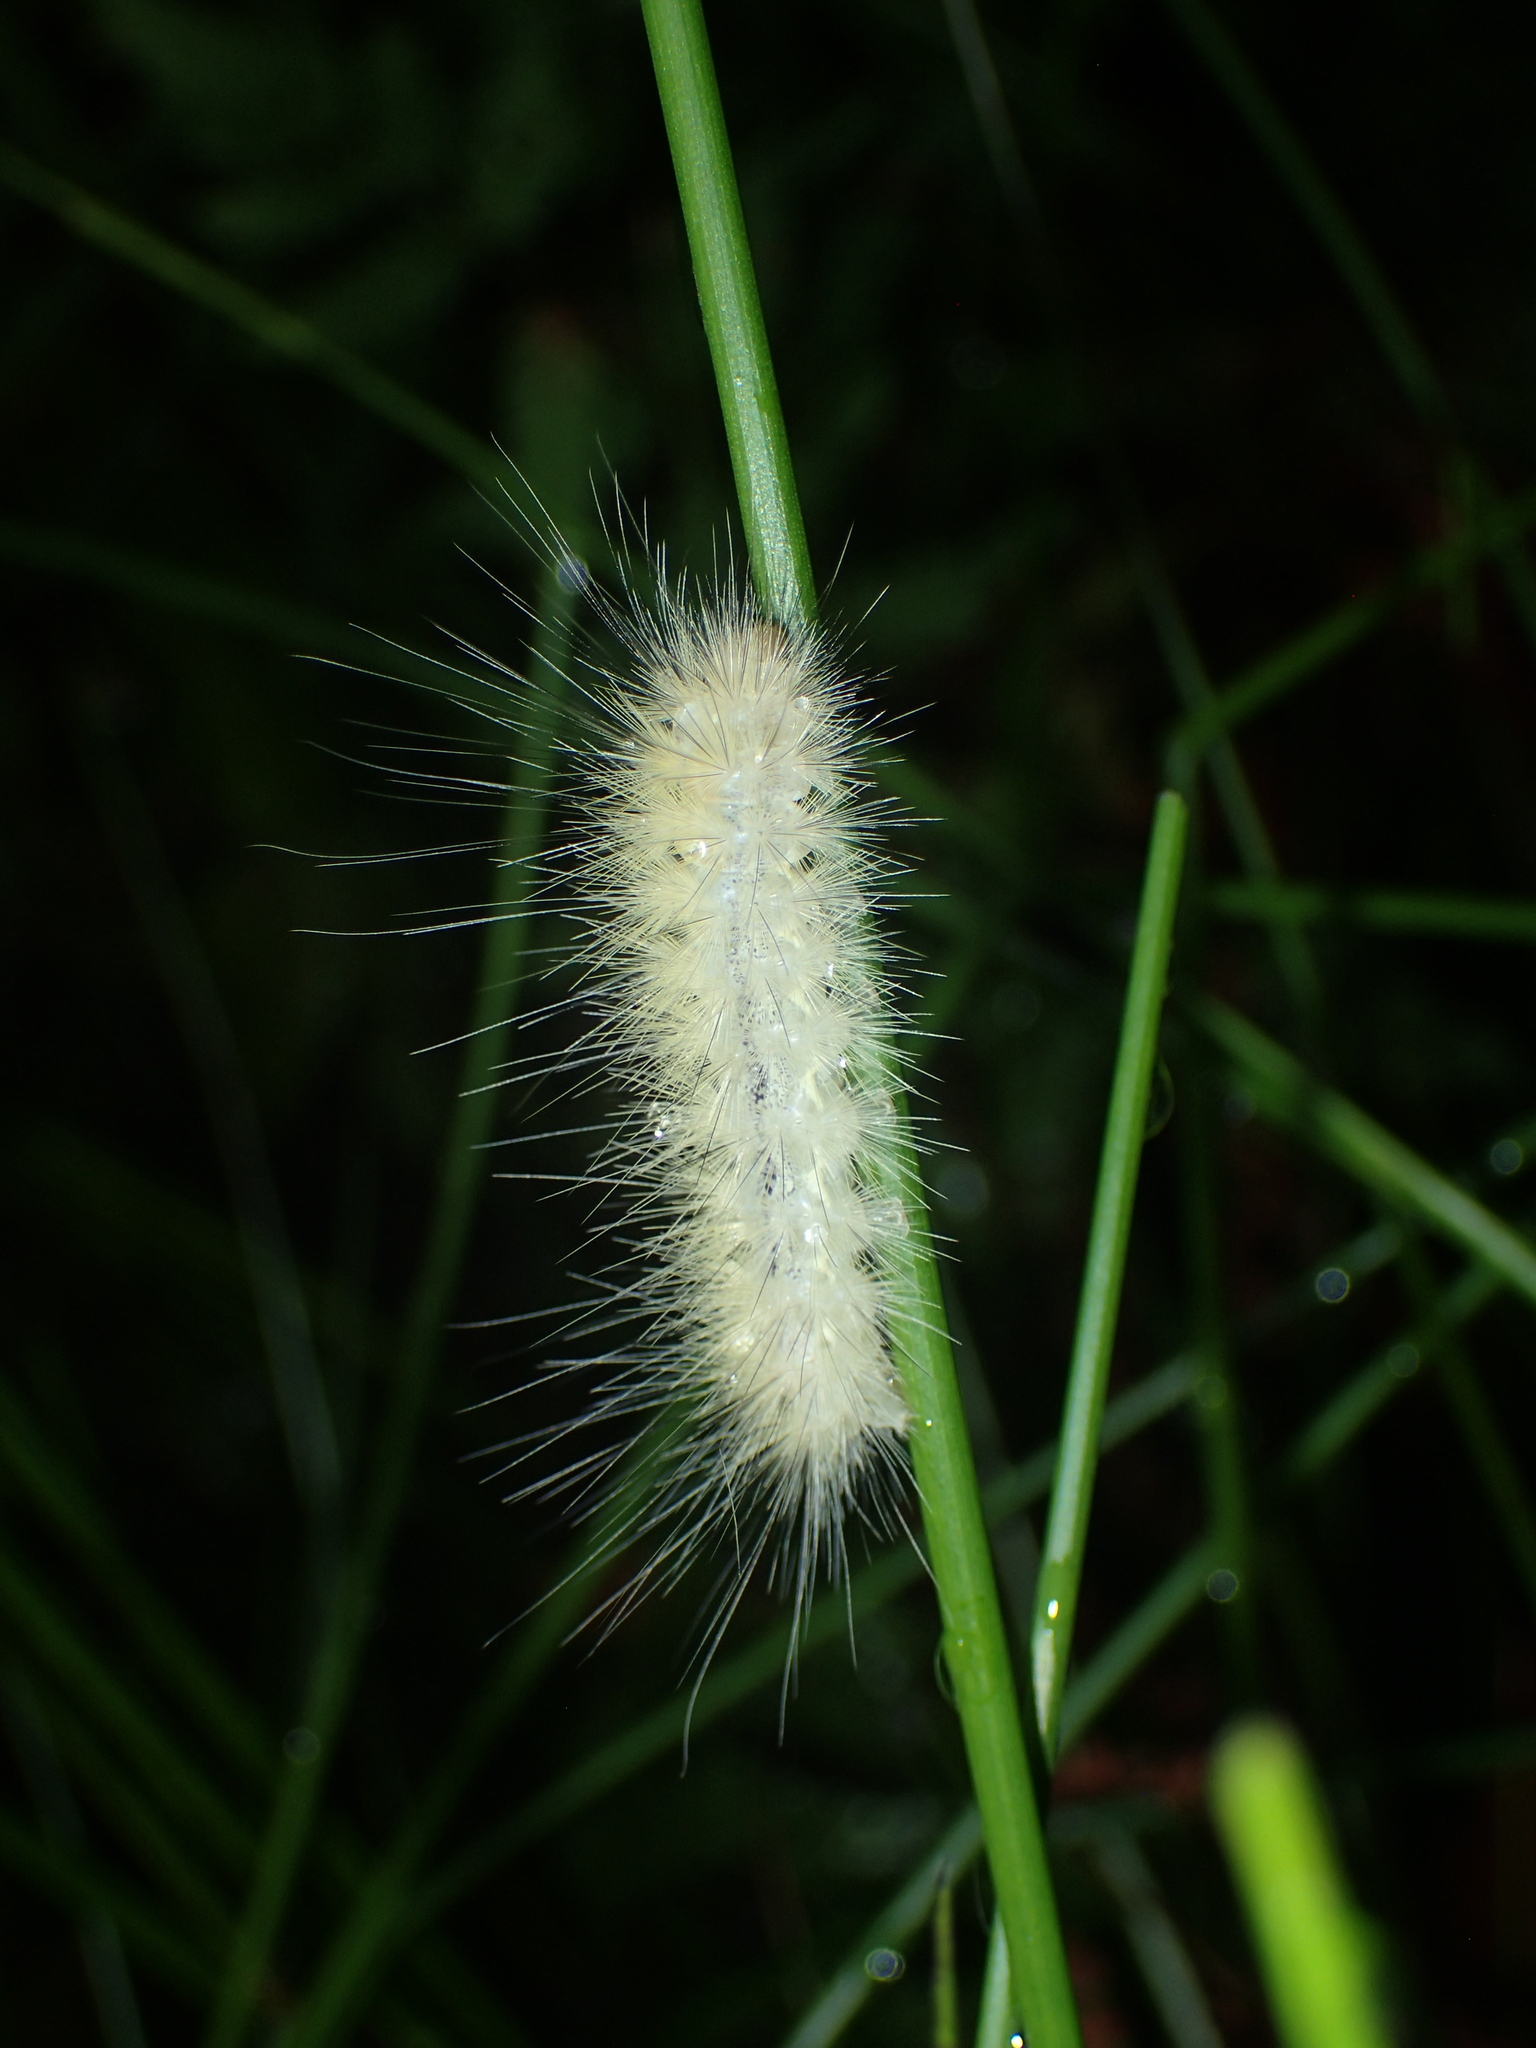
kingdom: Animalia
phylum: Arthropoda
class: Insecta
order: Lepidoptera
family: Erebidae
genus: Spilosoma
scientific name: Spilosoma virginica
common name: Virginia tiger moth
